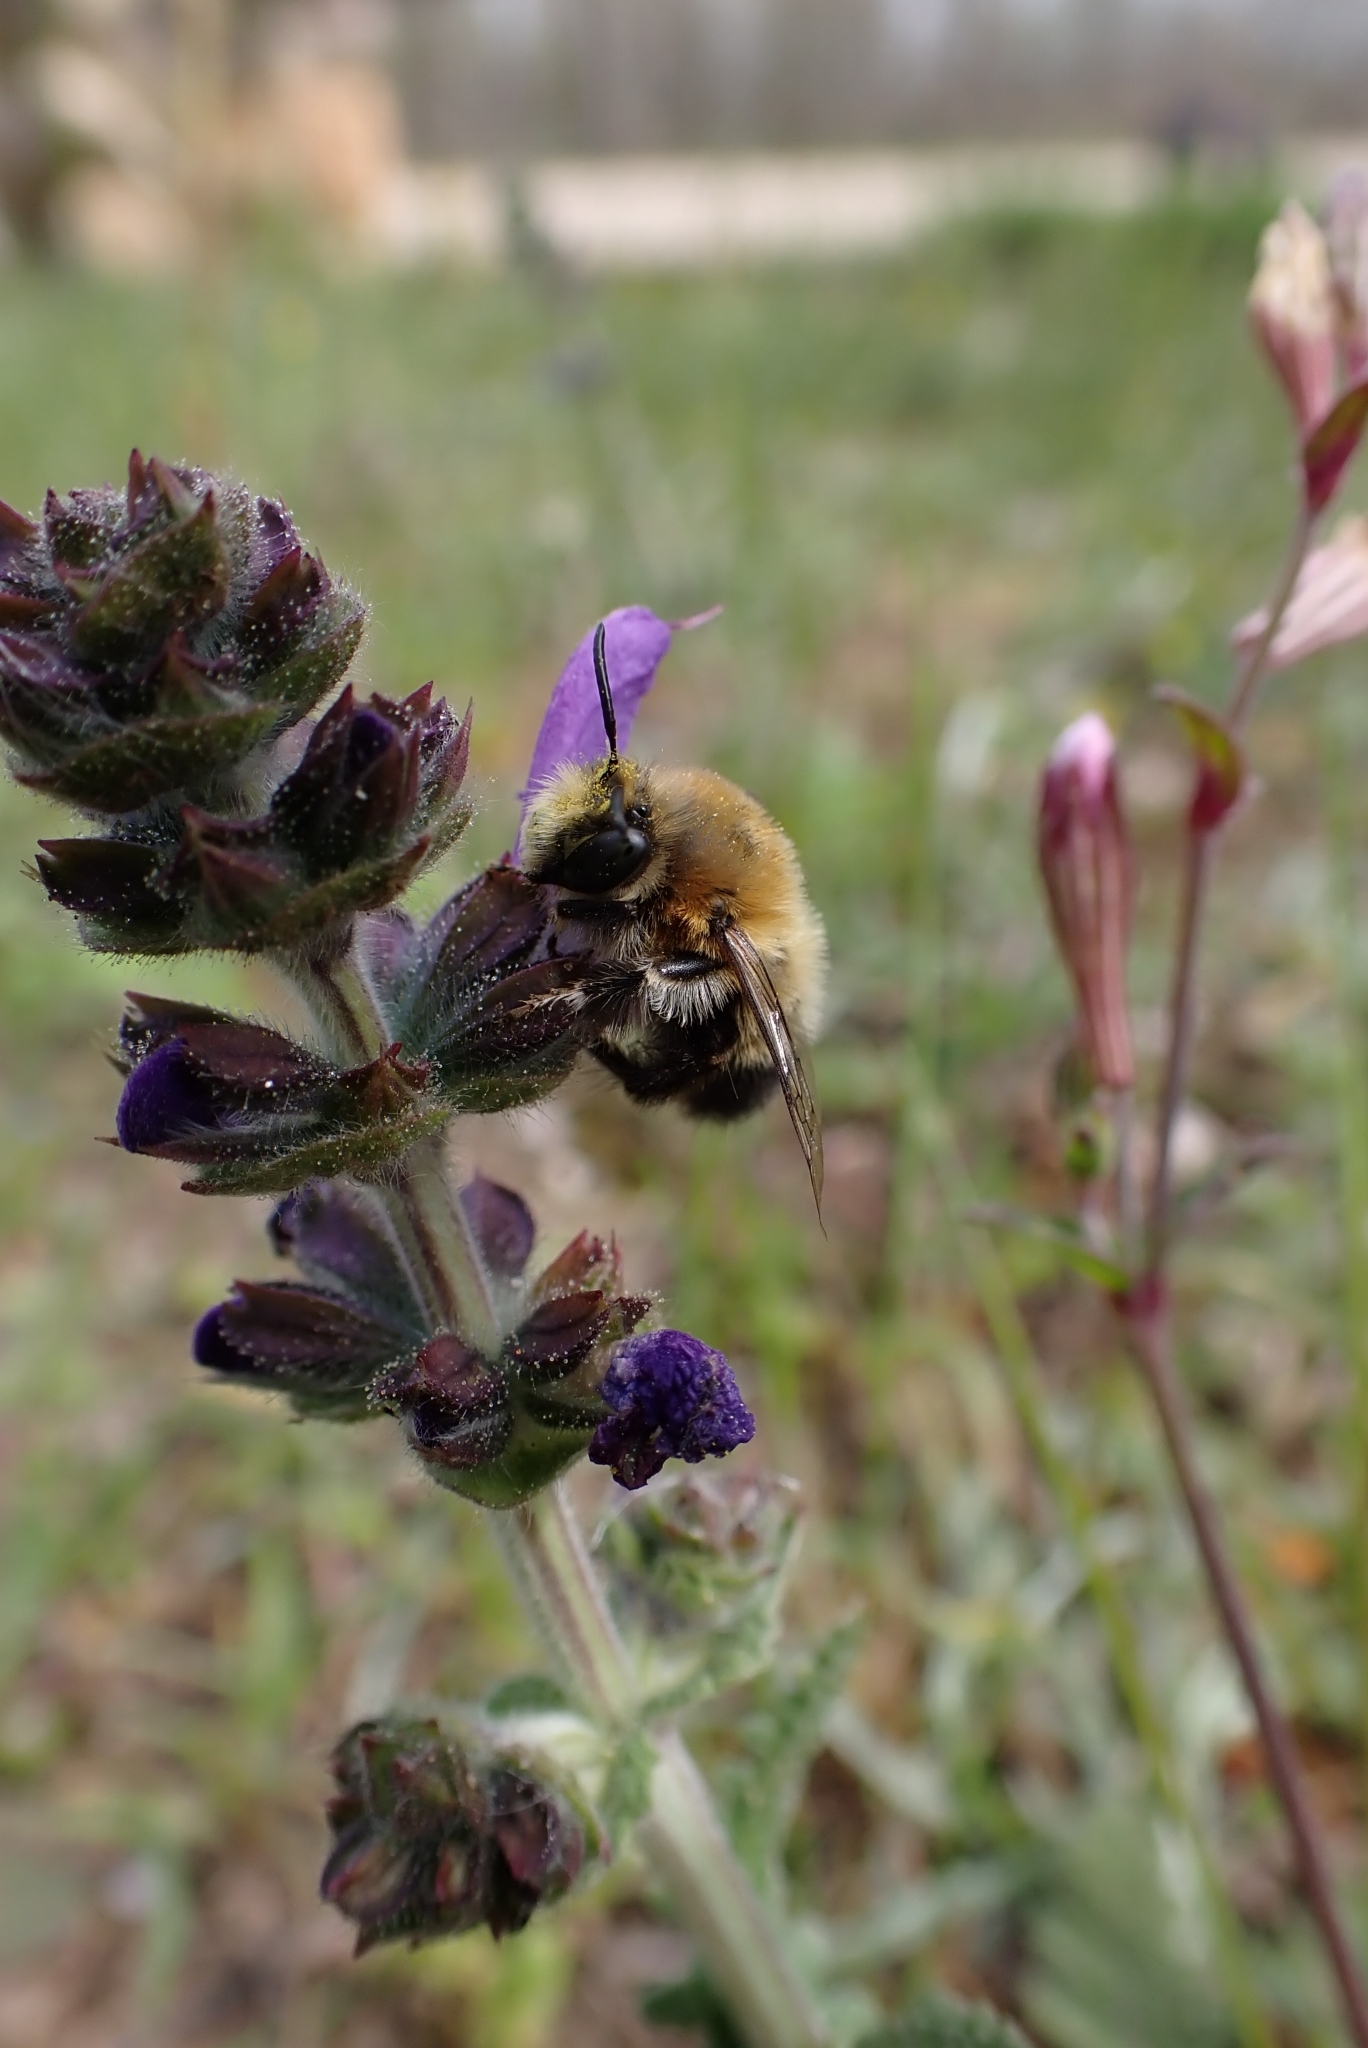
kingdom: Plantae
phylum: Tracheophyta
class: Magnoliopsida
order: Lamiales
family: Lamiaceae
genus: Salvia
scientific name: Salvia verbenaca
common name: Wild clary
